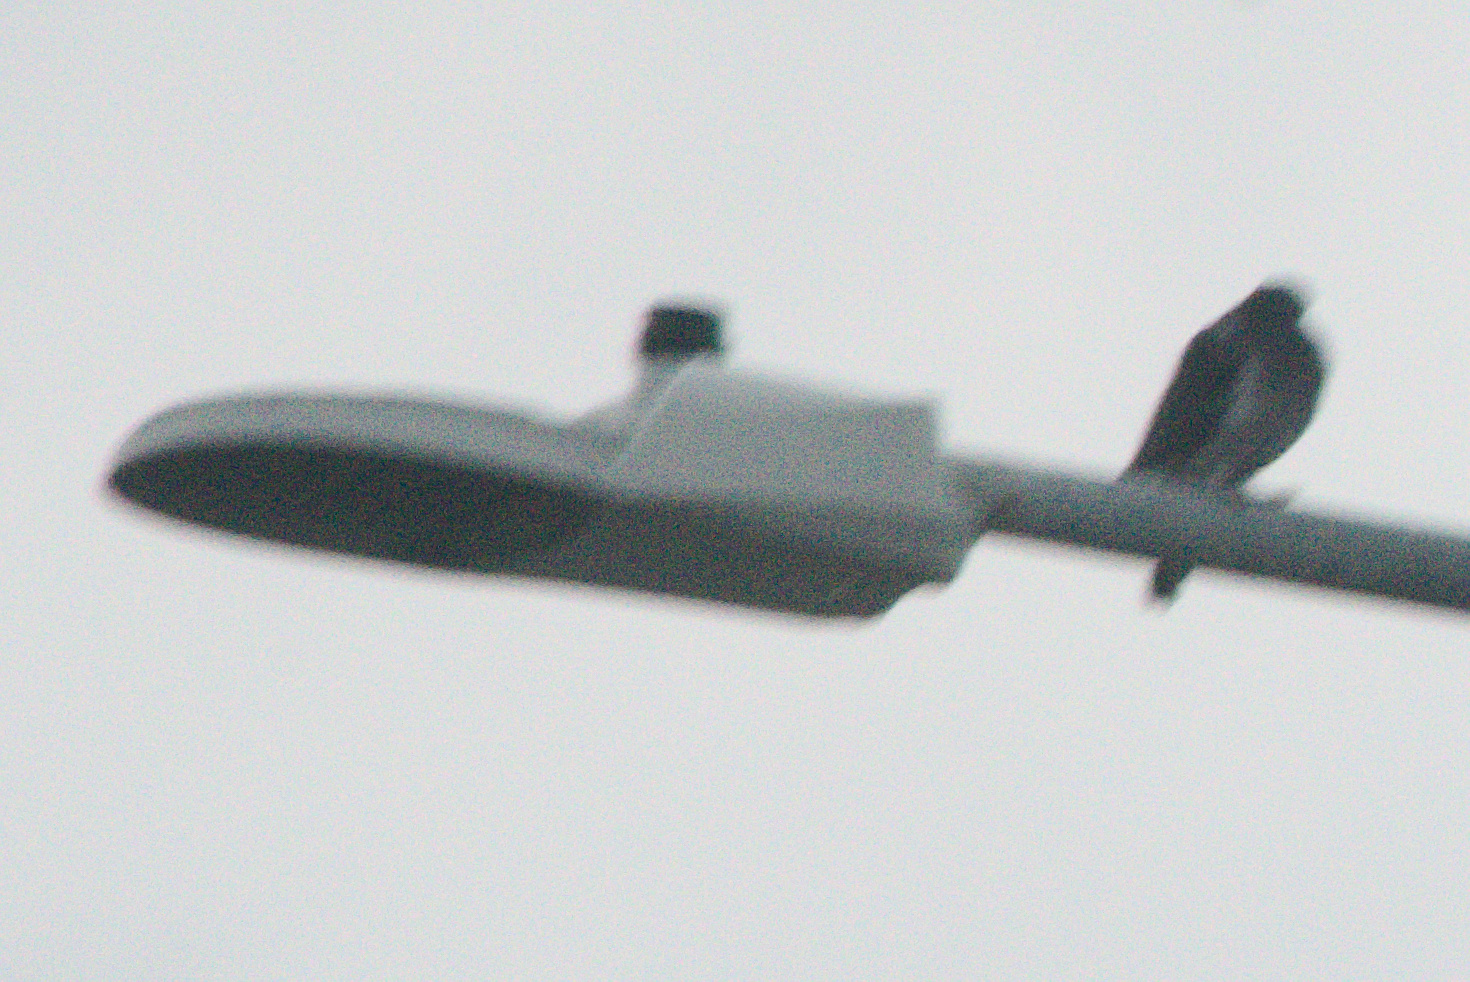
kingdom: Animalia
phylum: Chordata
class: Aves
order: Columbiformes
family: Columbidae
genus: Columba
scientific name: Columba livia
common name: Rock pigeon
